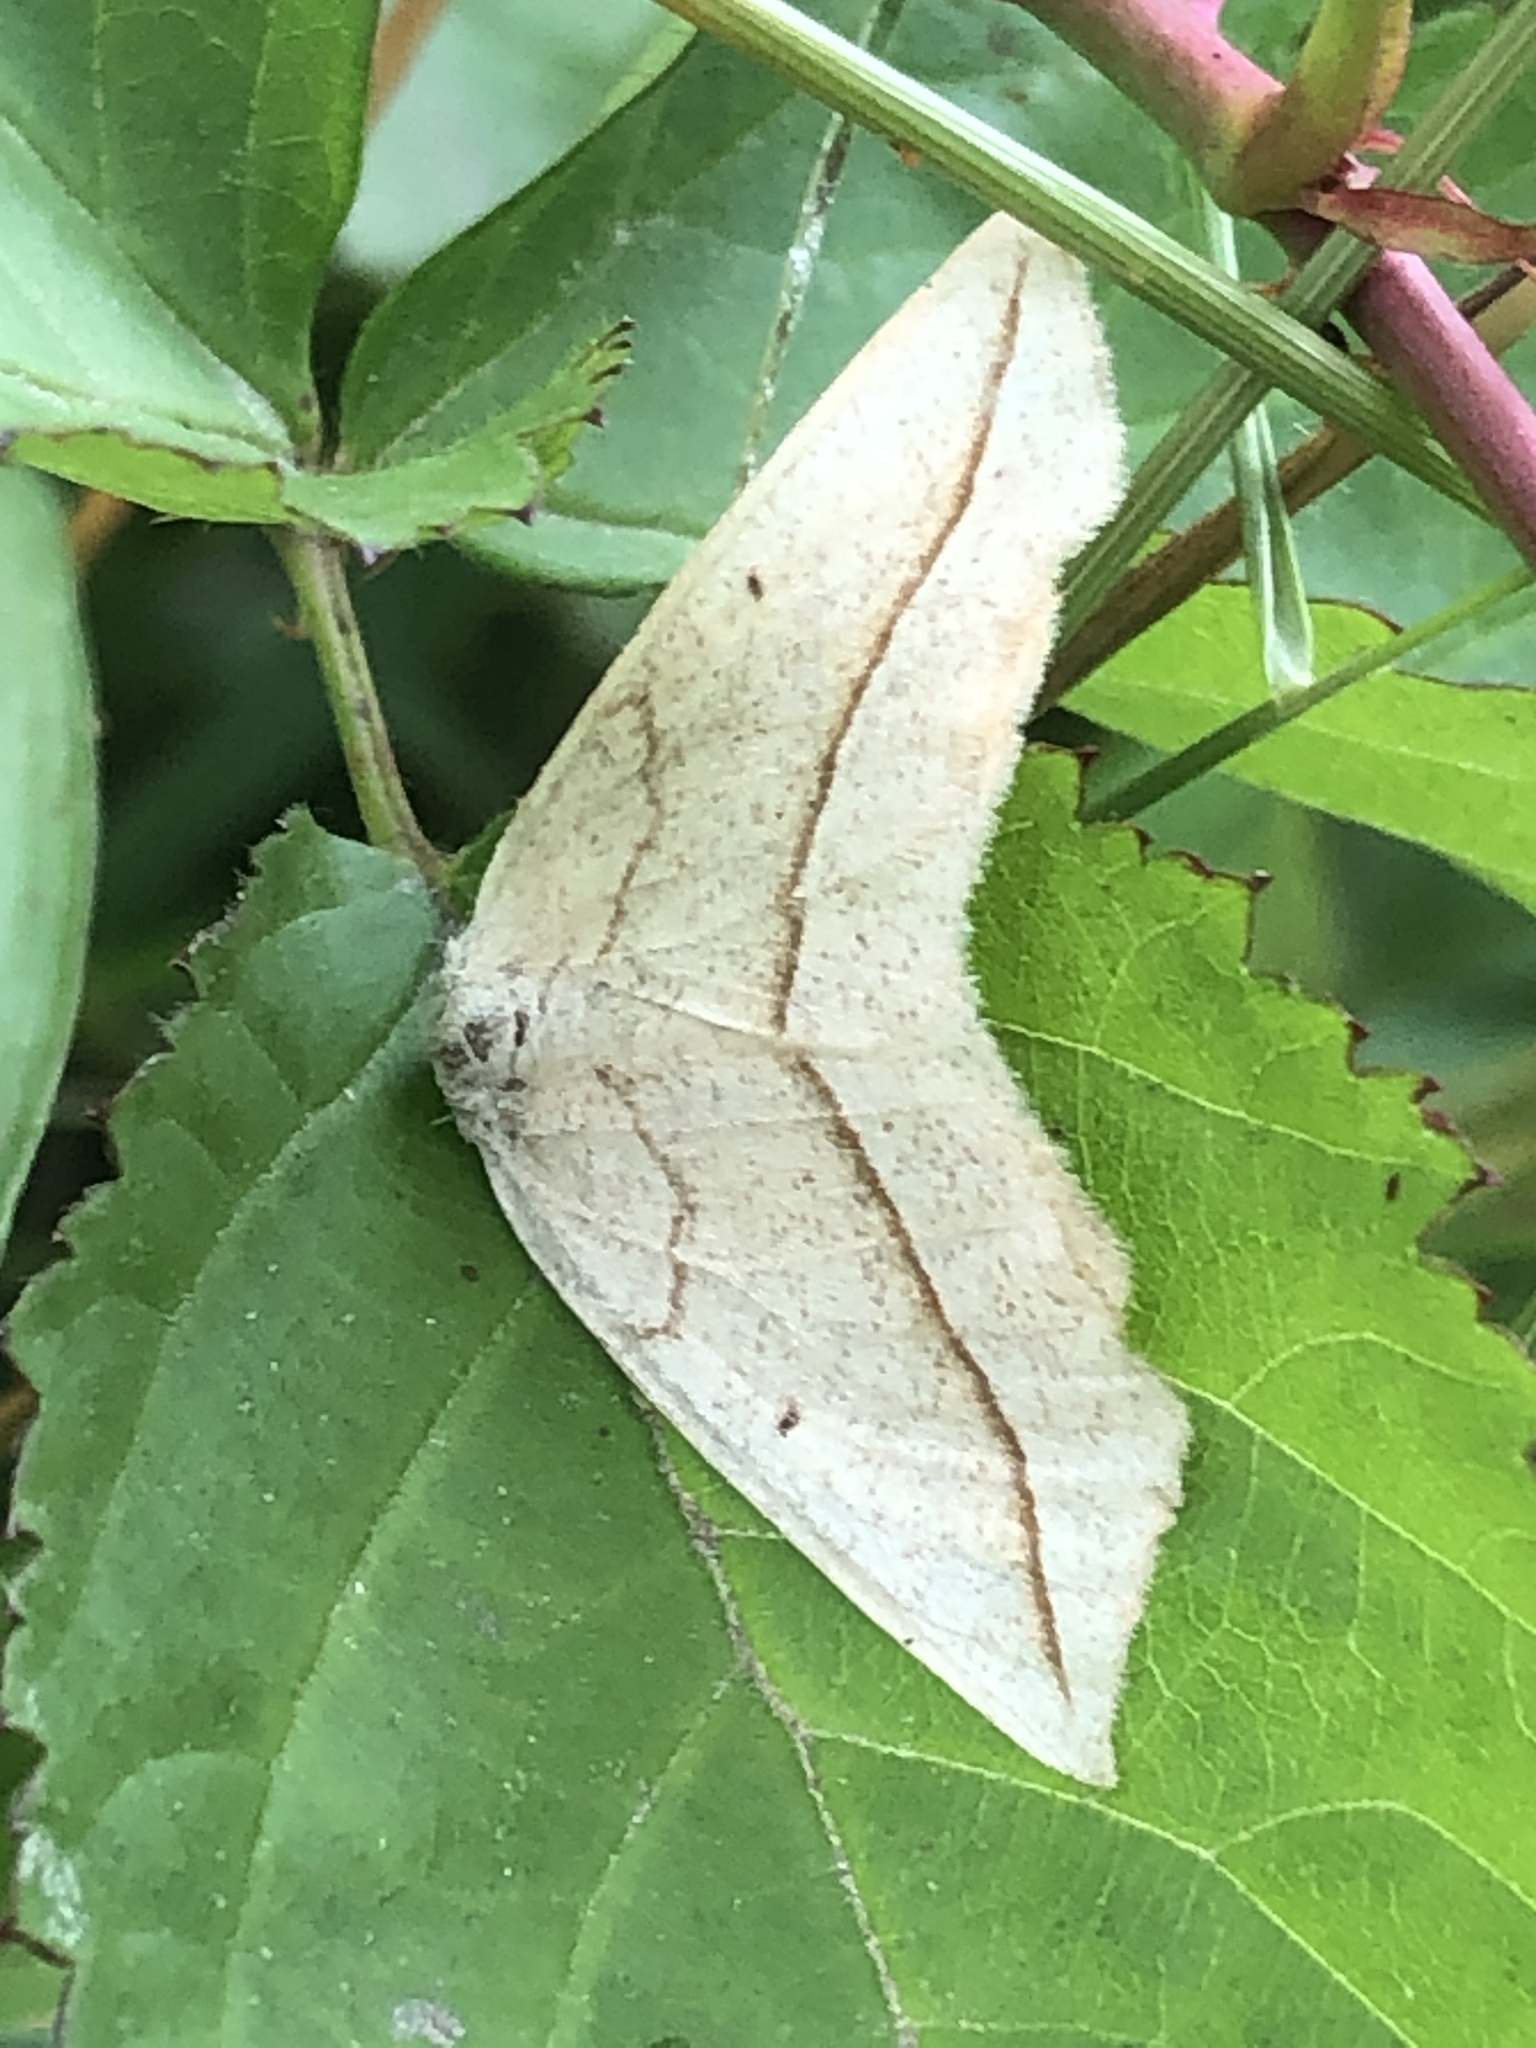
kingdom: Animalia
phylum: Arthropoda
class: Insecta
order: Lepidoptera
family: Geometridae
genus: Eusarca
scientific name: Eusarca confusaria
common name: Confused eusarca
